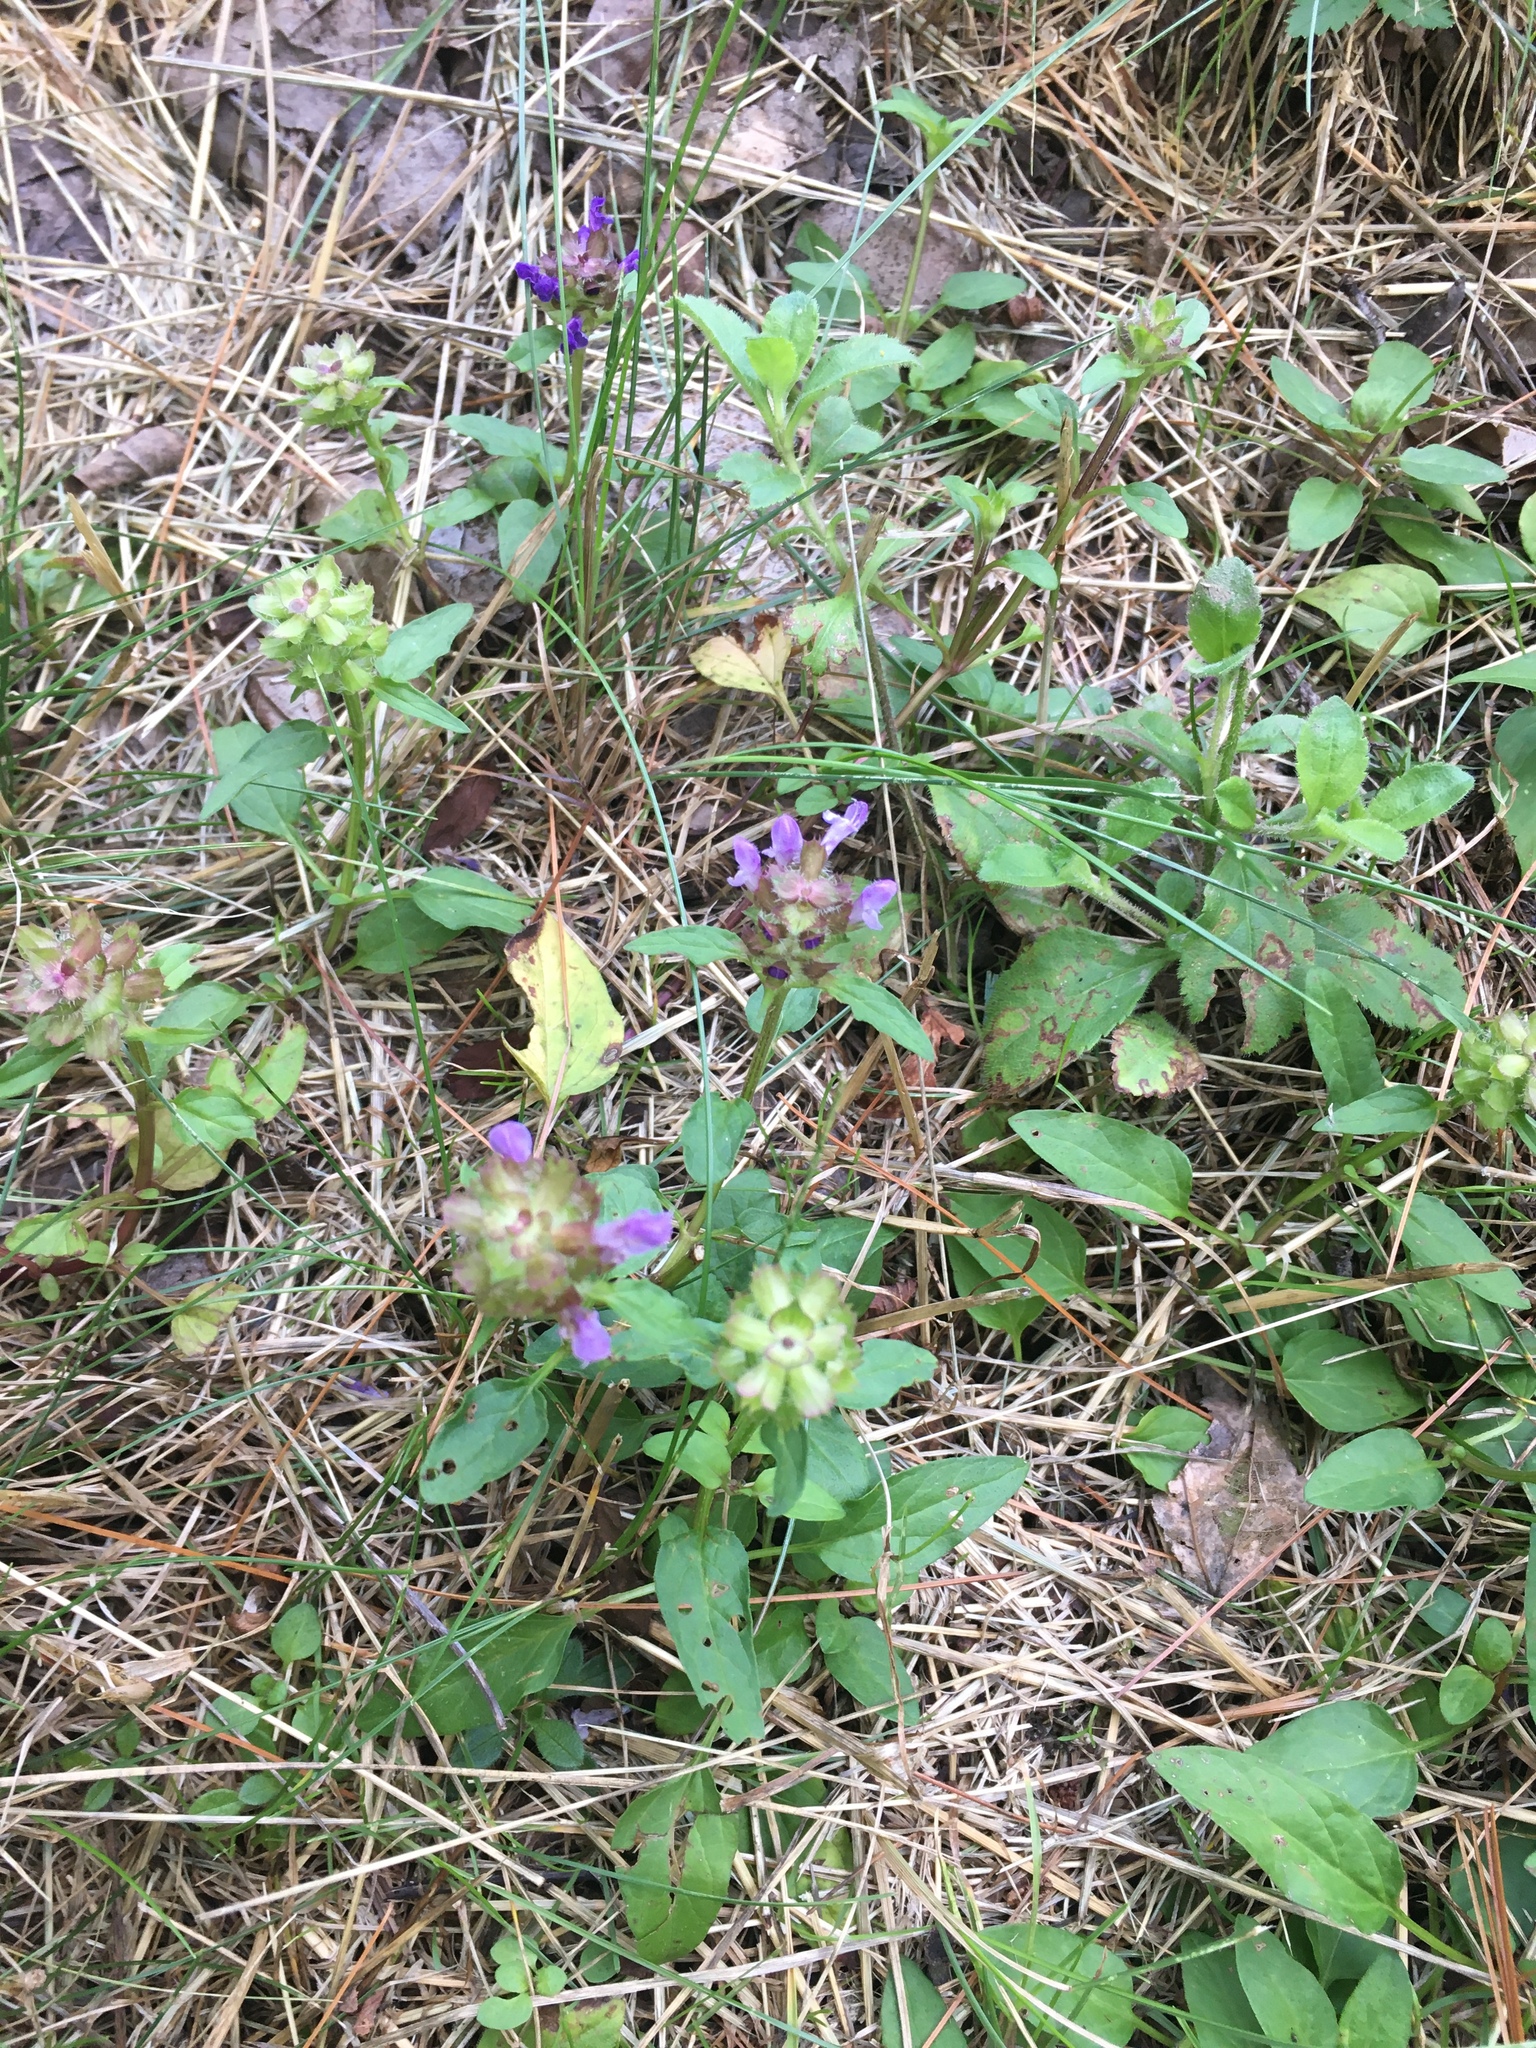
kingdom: Plantae
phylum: Tracheophyta
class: Magnoliopsida
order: Lamiales
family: Lamiaceae
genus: Prunella
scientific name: Prunella vulgaris
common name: Heal-all
